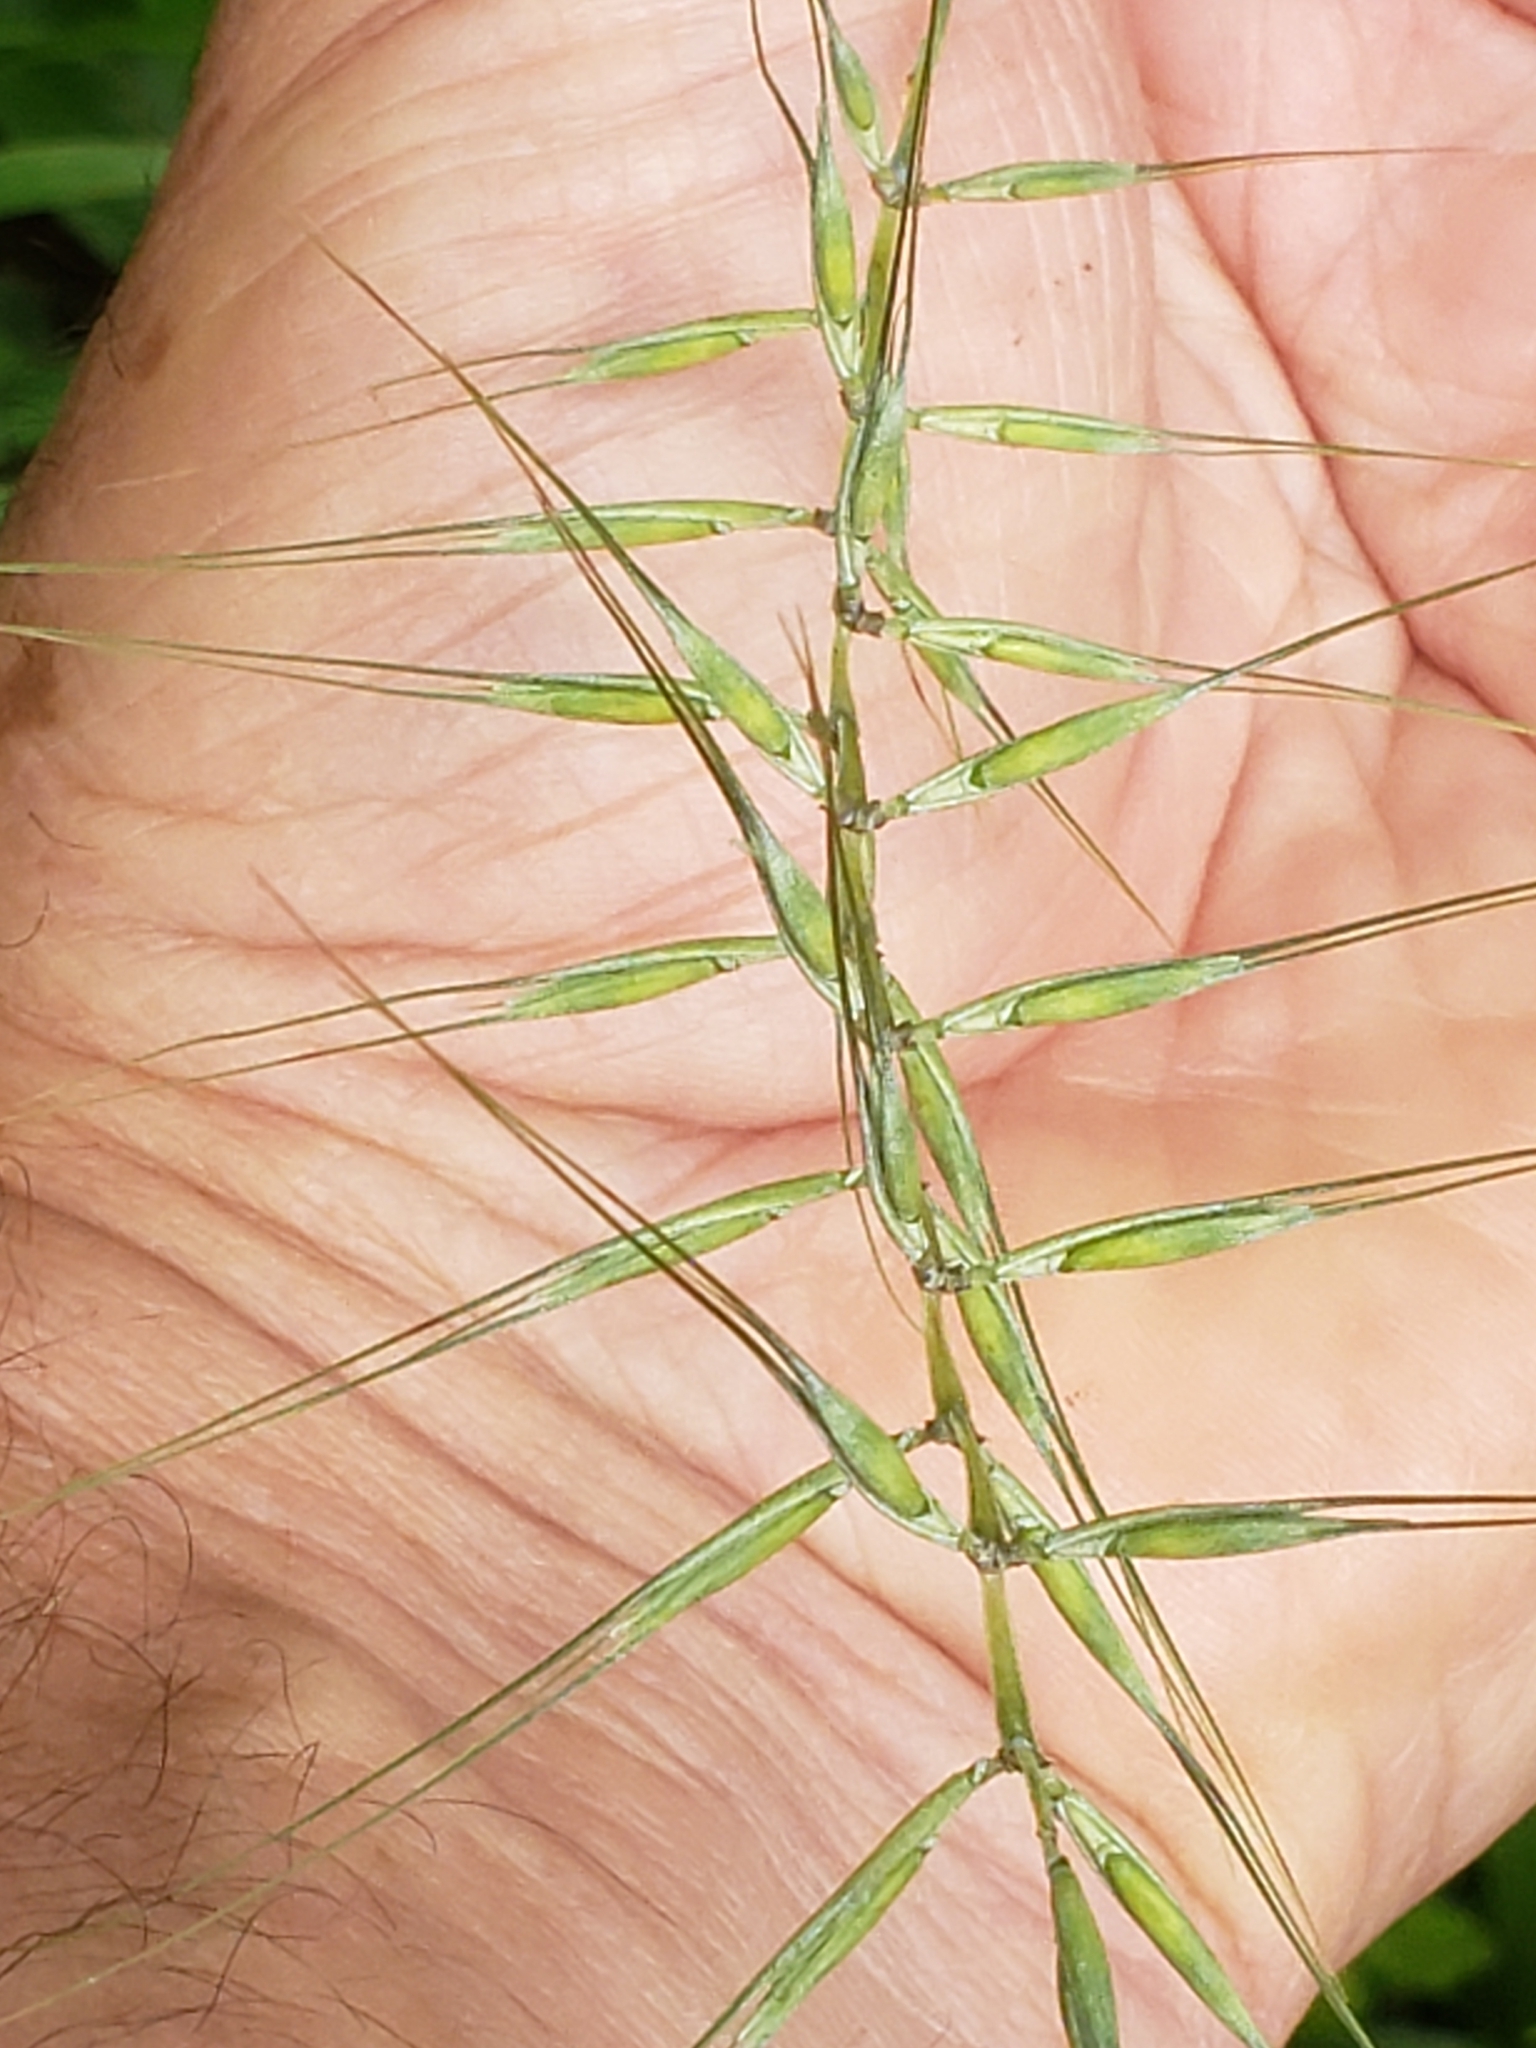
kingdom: Plantae
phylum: Tracheophyta
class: Liliopsida
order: Poales
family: Poaceae
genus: Elymus
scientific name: Elymus hystrix
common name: Bottlebrush grass
